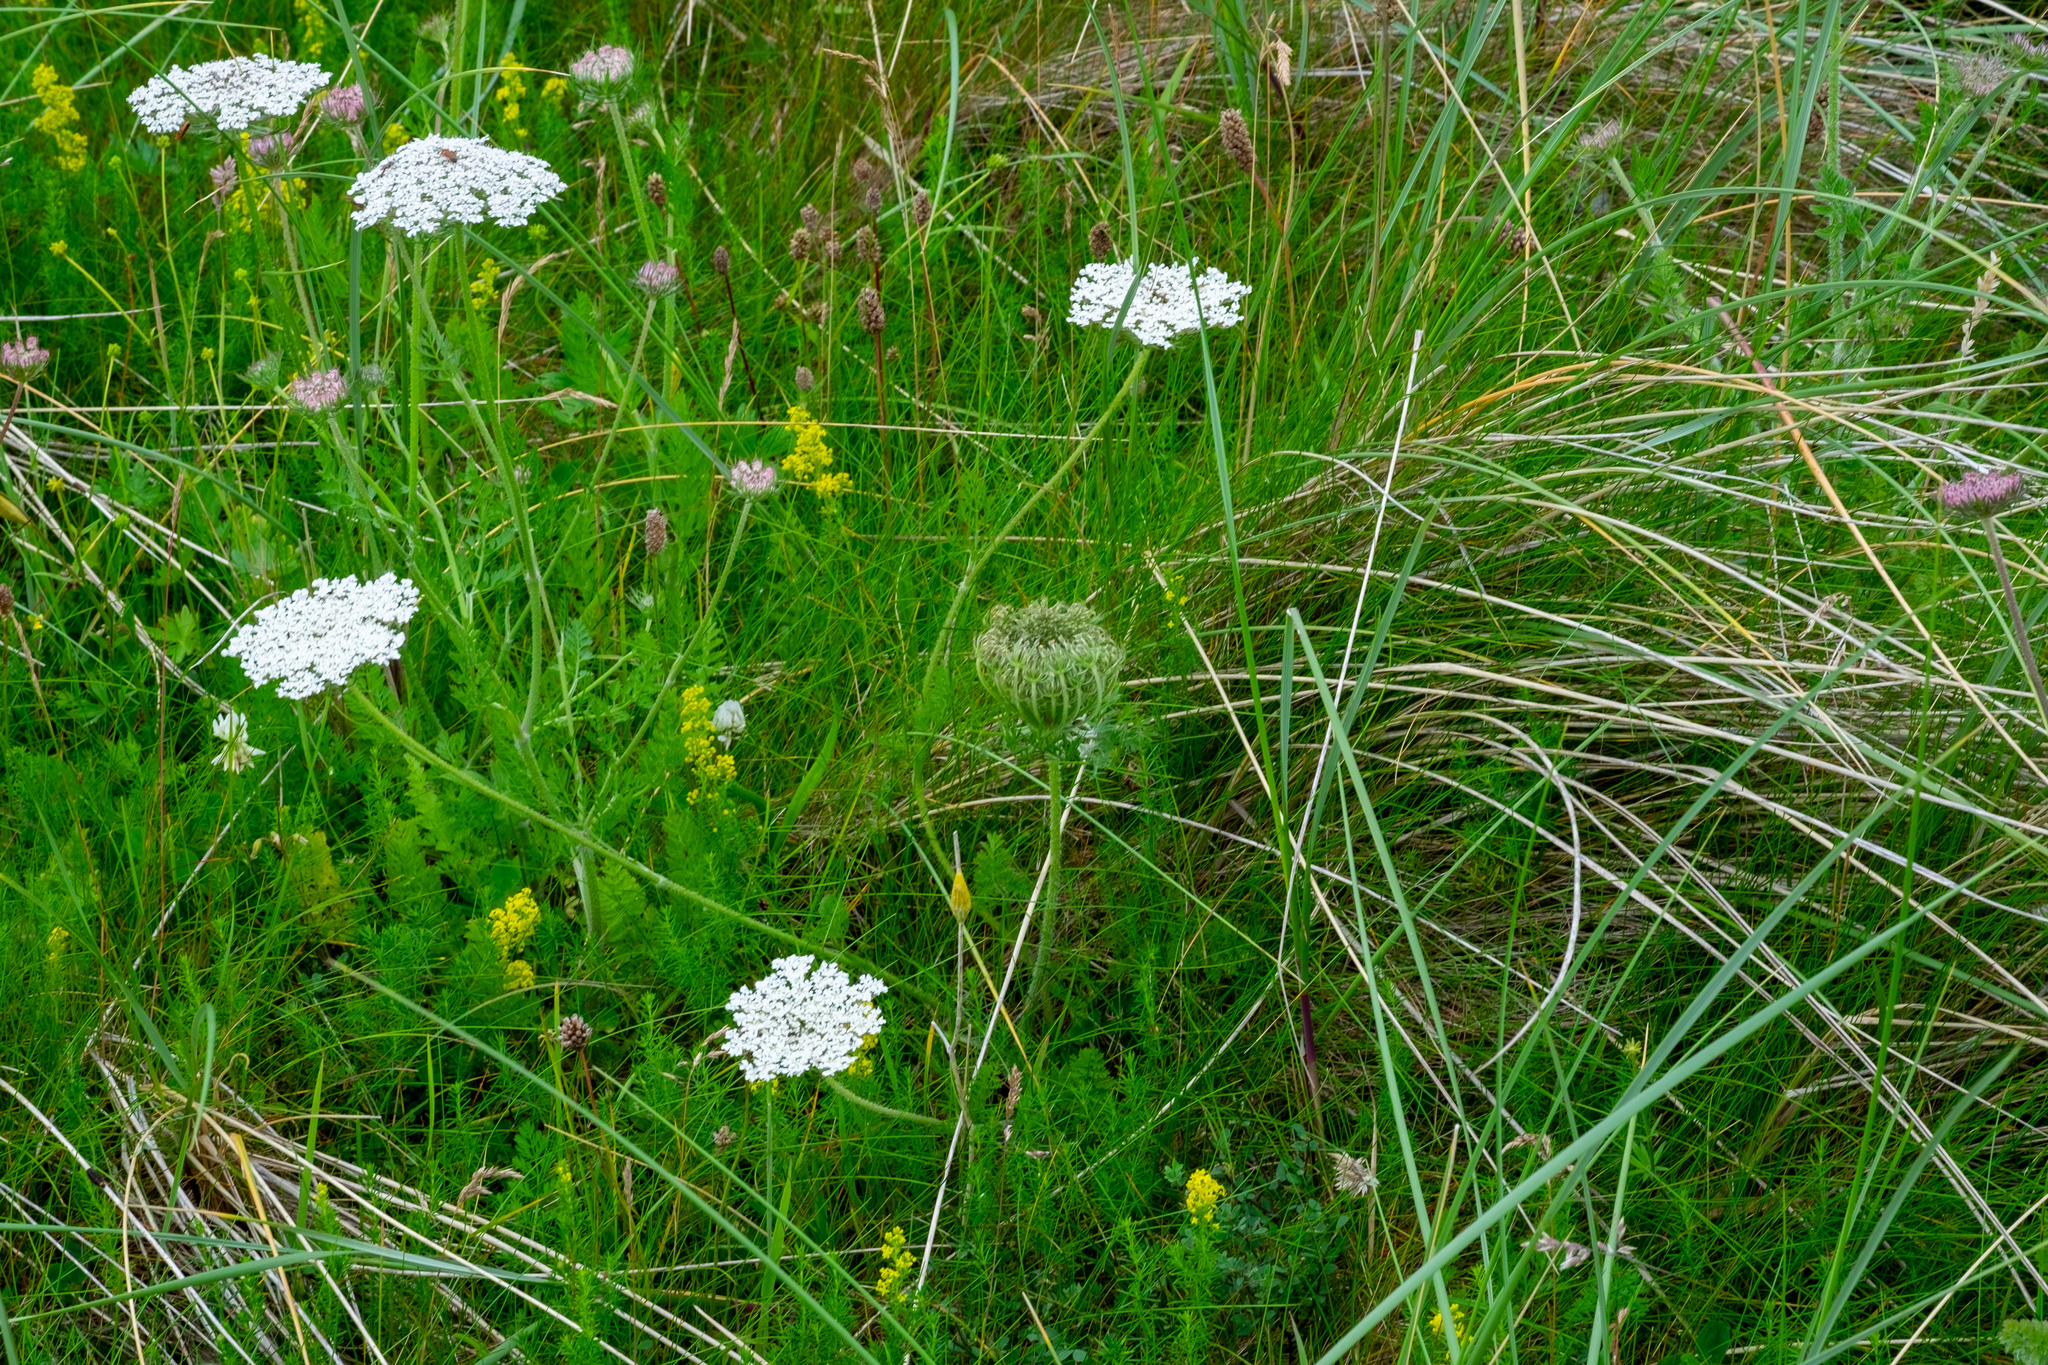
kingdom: Plantae
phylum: Tracheophyta
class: Magnoliopsida
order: Apiales
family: Apiaceae
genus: Daucus
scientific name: Daucus carota
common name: Wild carrot
